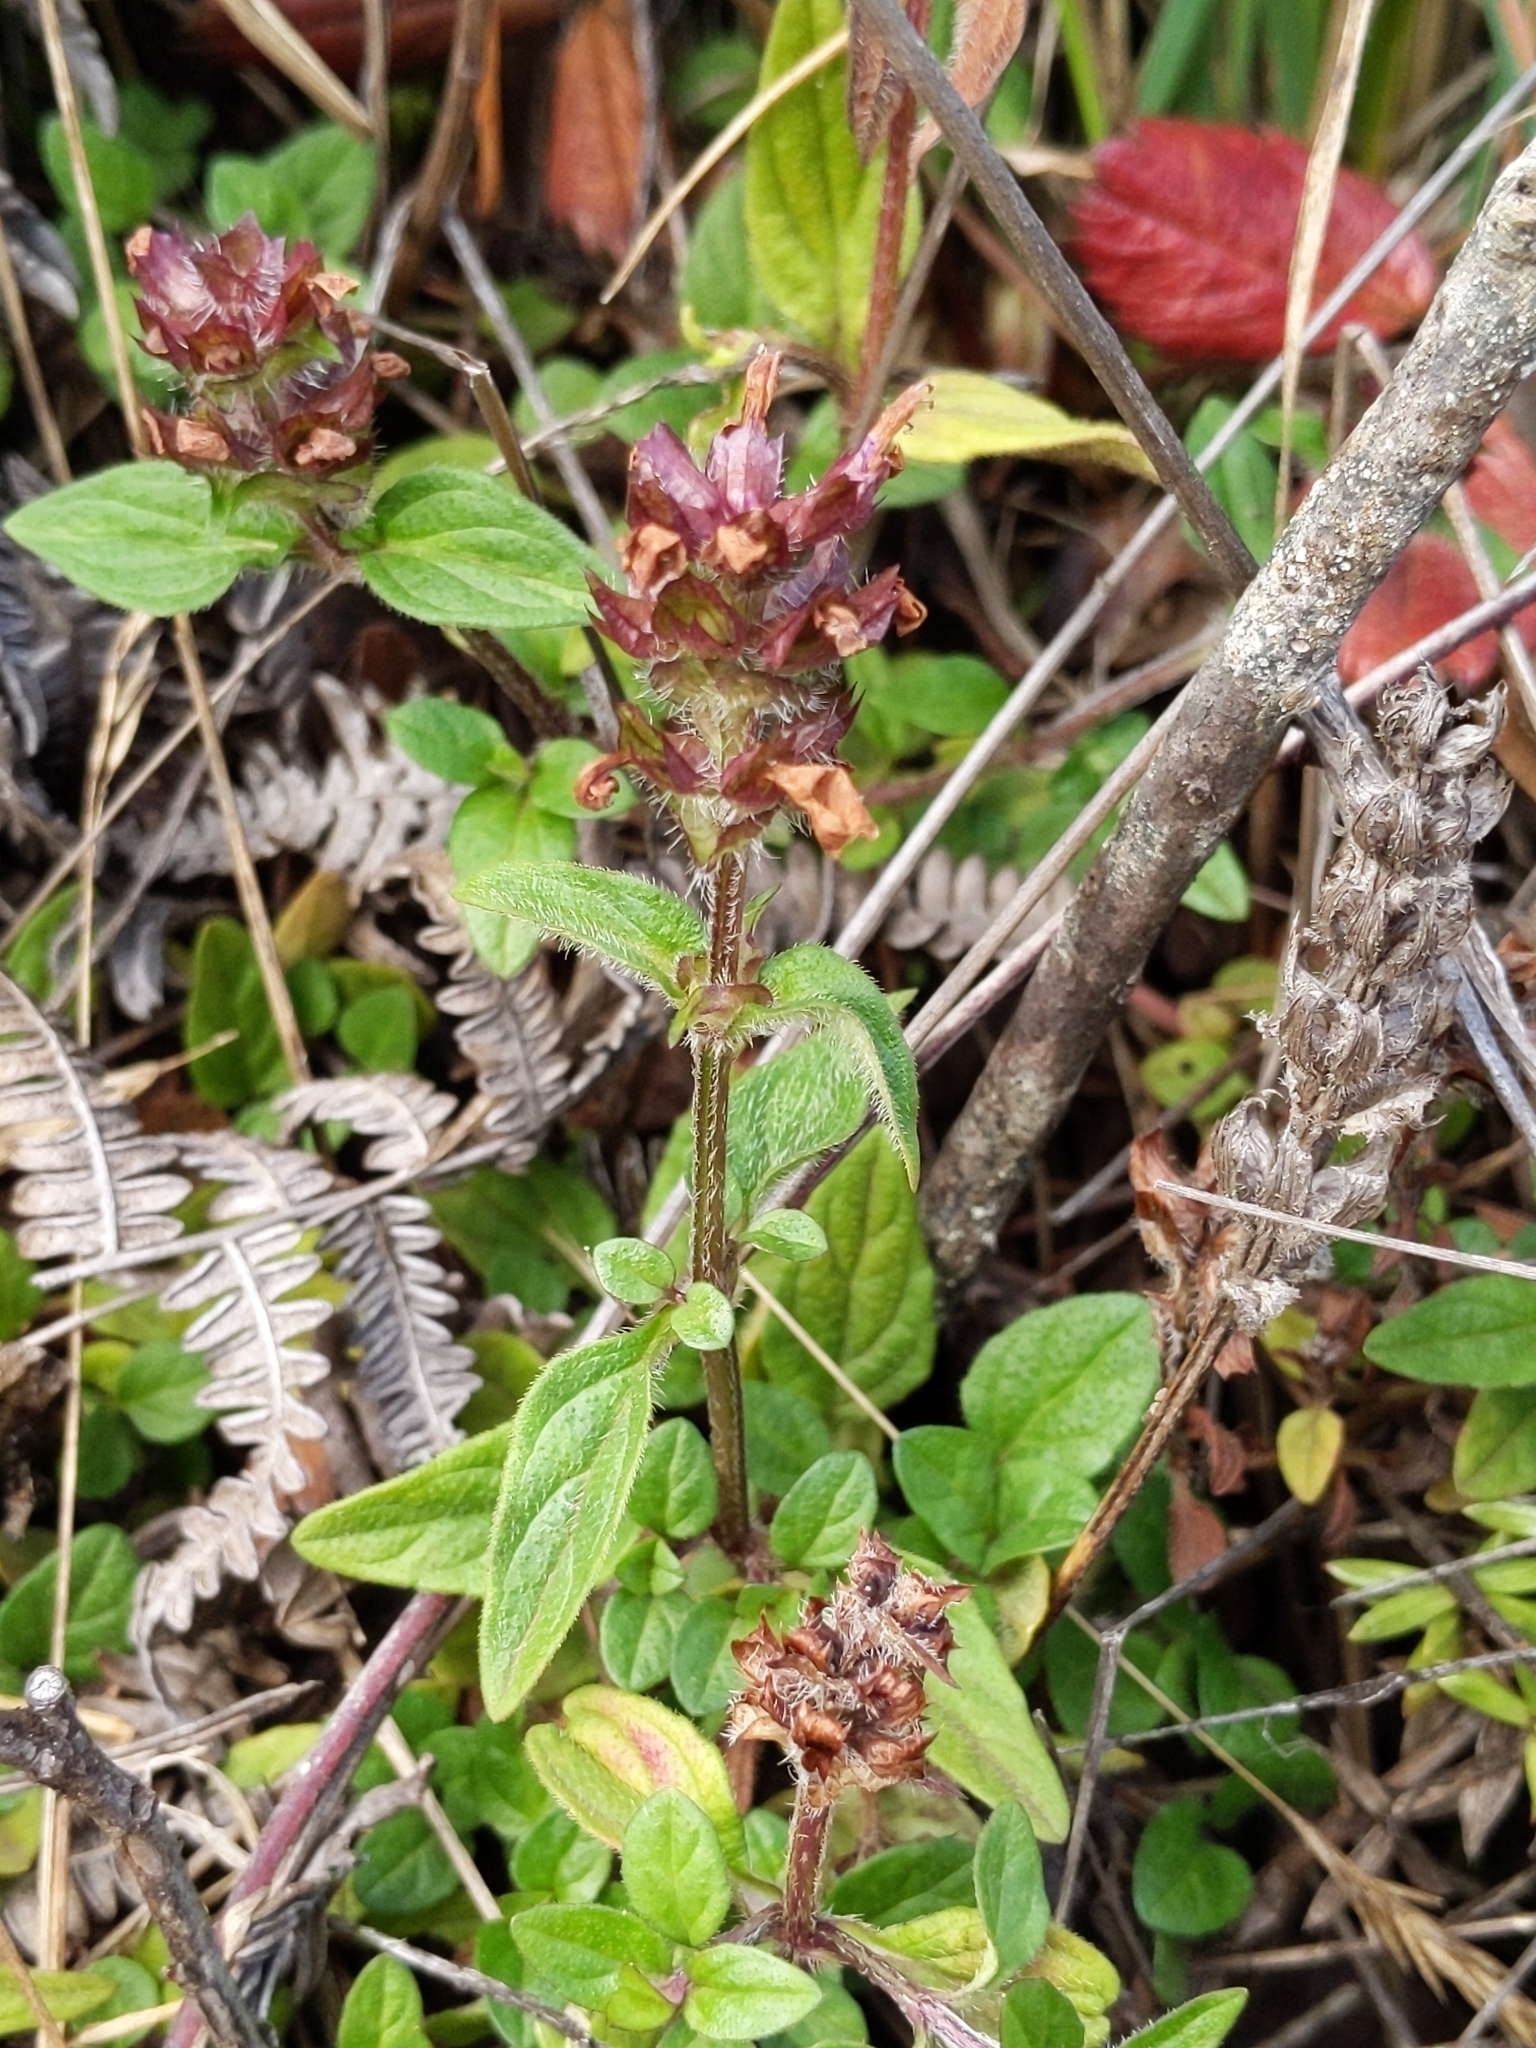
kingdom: Plantae
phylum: Tracheophyta
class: Magnoliopsida
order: Lamiales
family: Lamiaceae
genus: Prunella
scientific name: Prunella vulgaris
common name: Heal-all
